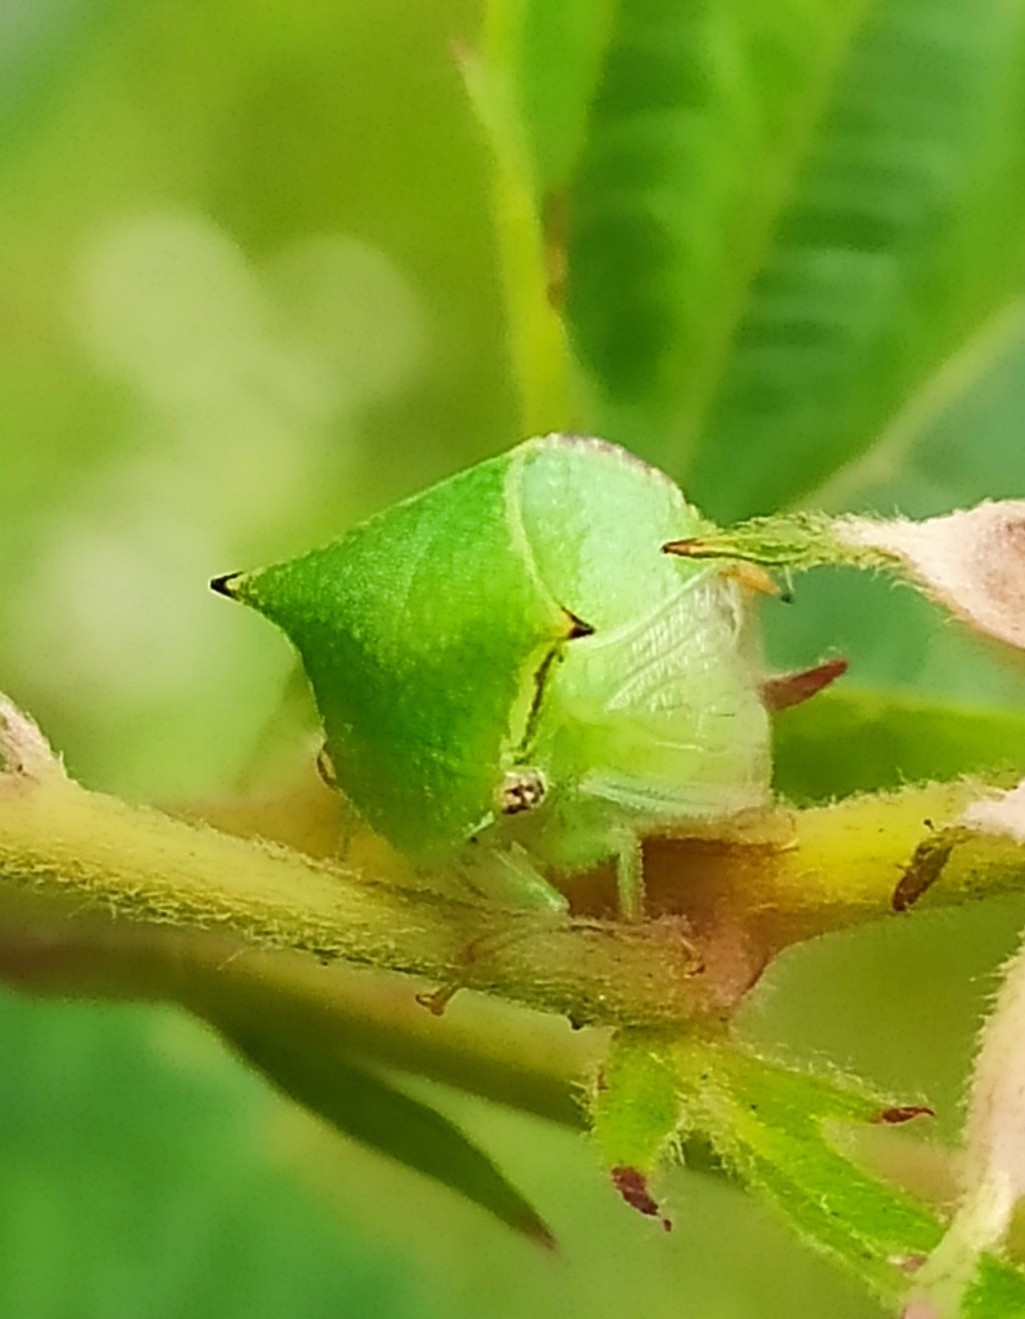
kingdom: Animalia
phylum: Arthropoda
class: Insecta
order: Hemiptera
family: Membracidae
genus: Stictocephala
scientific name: Stictocephala bisonia
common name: American buffalo treehopper
